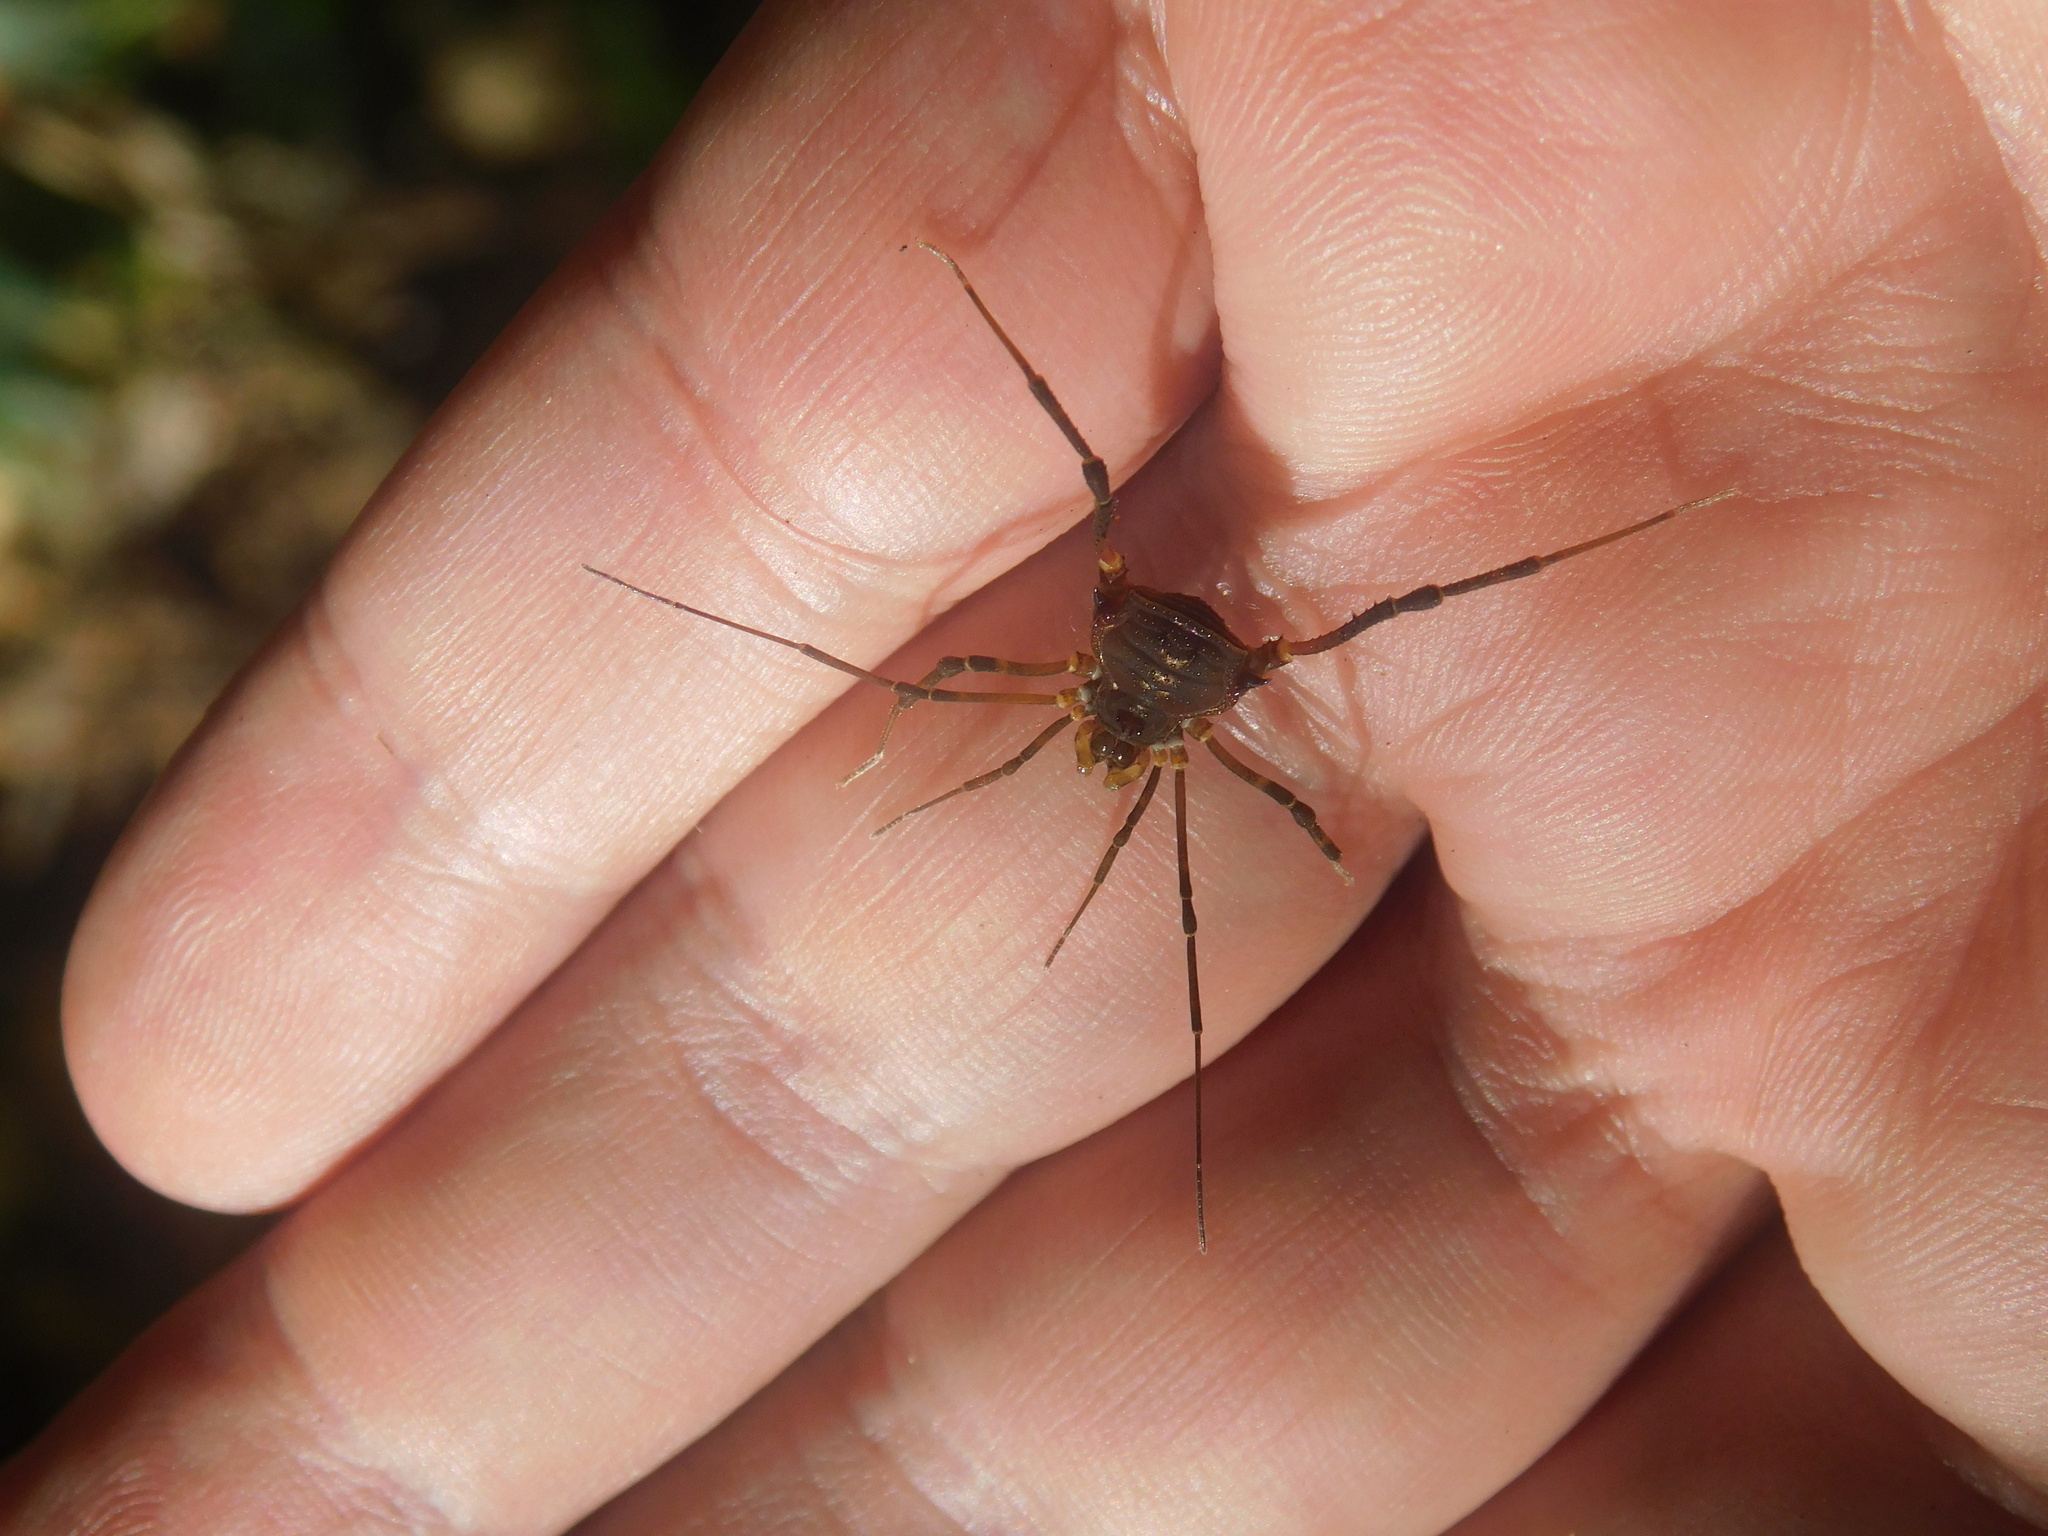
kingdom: Animalia
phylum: Arthropoda
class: Arachnida
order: Opiliones
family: Gonyleptidae
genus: Opisthoplatus
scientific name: Opisthoplatus prospicuus
